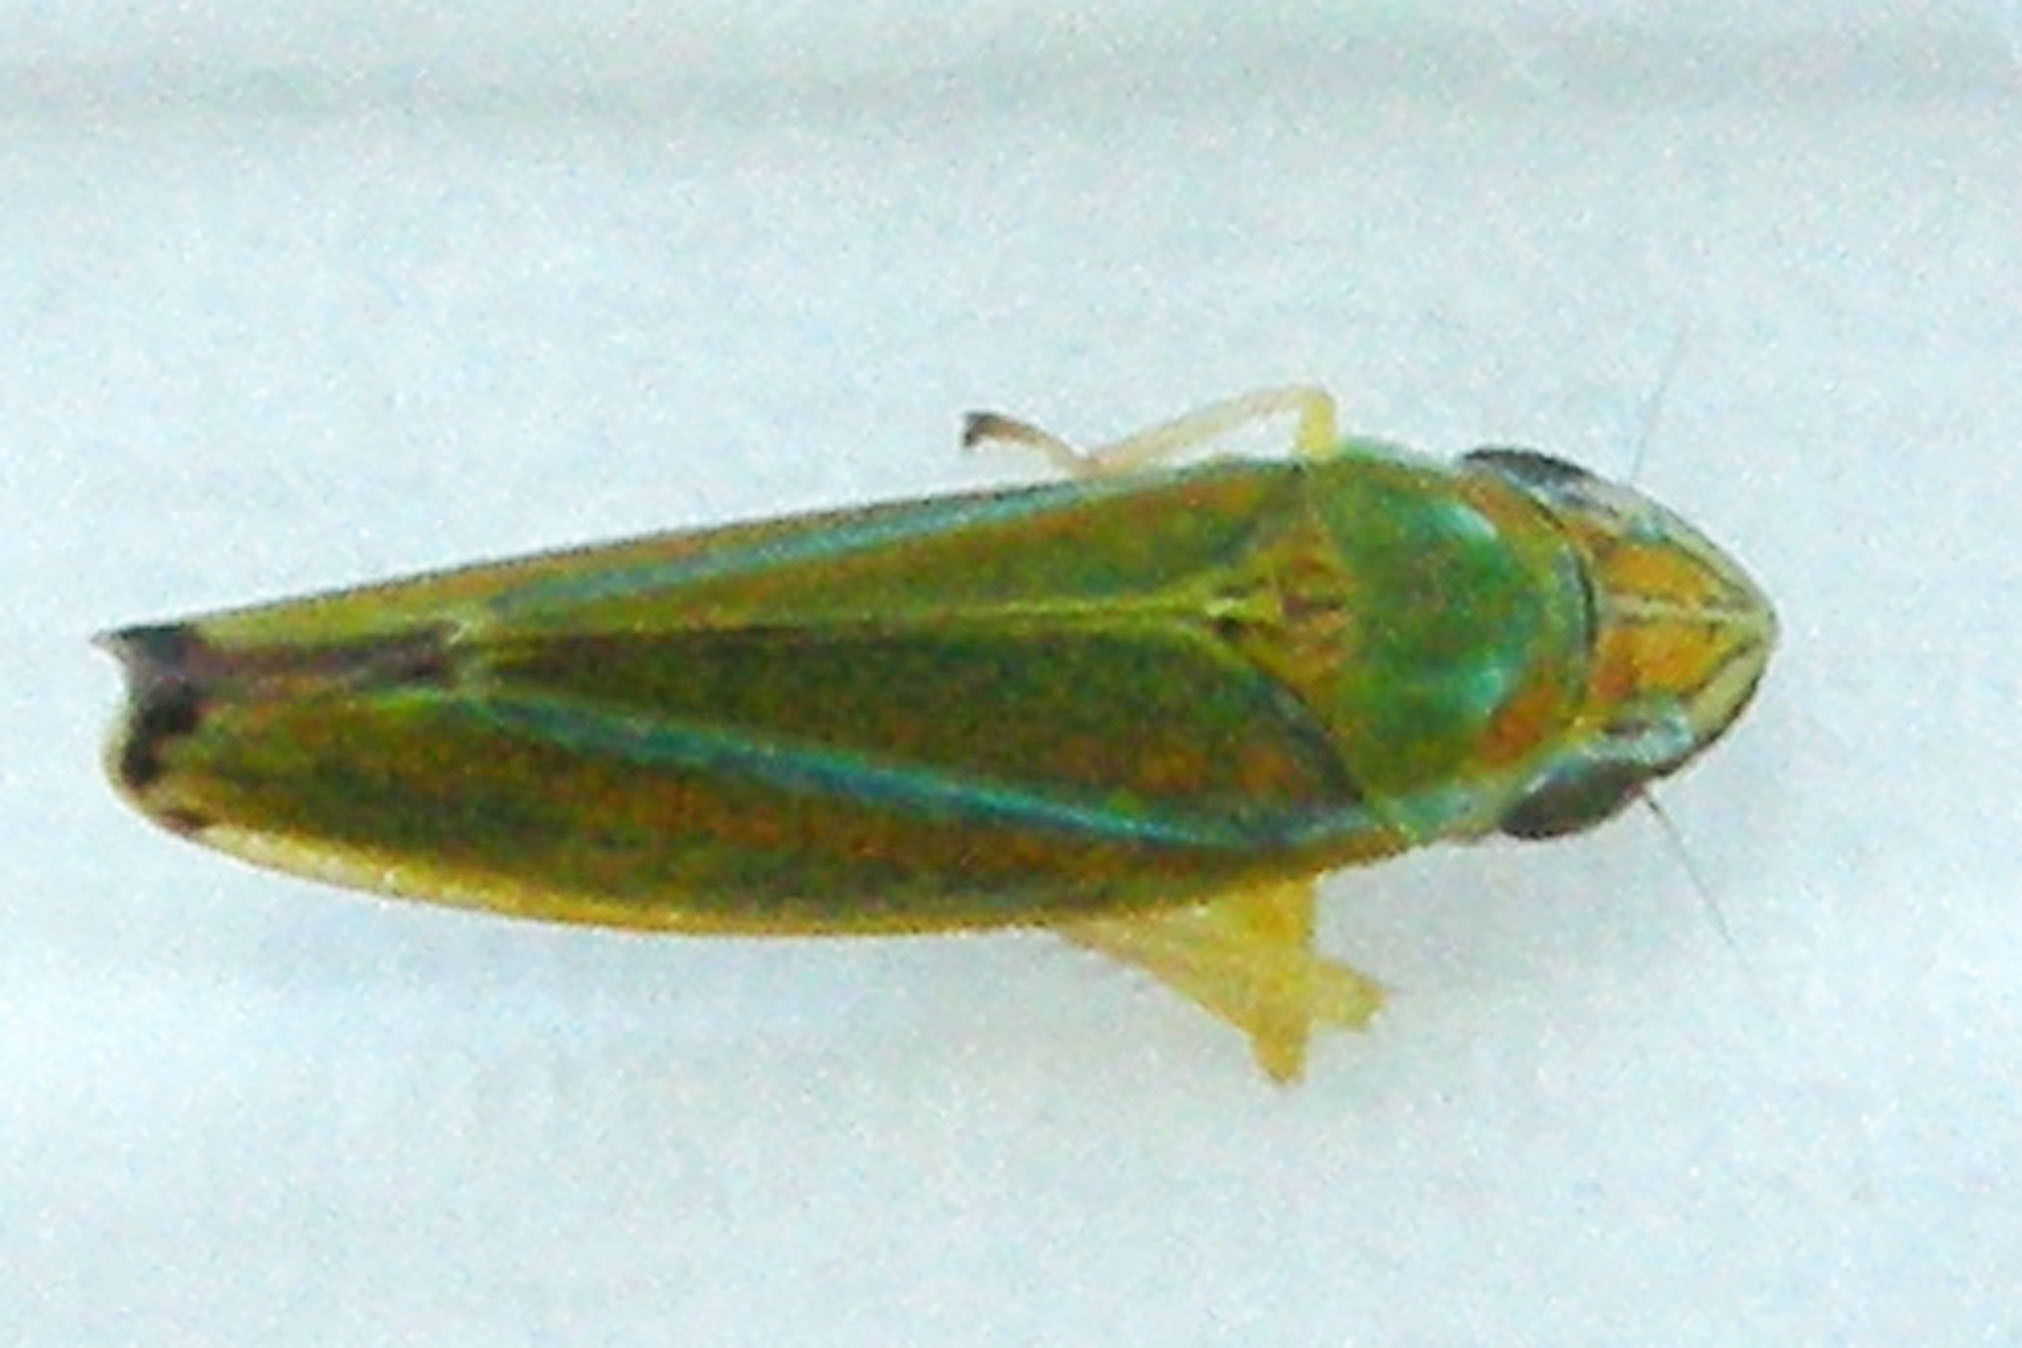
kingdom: Animalia
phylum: Arthropoda
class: Insecta
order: Hemiptera
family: Cicadellidae
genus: Graphocephala
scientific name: Graphocephala versuta
